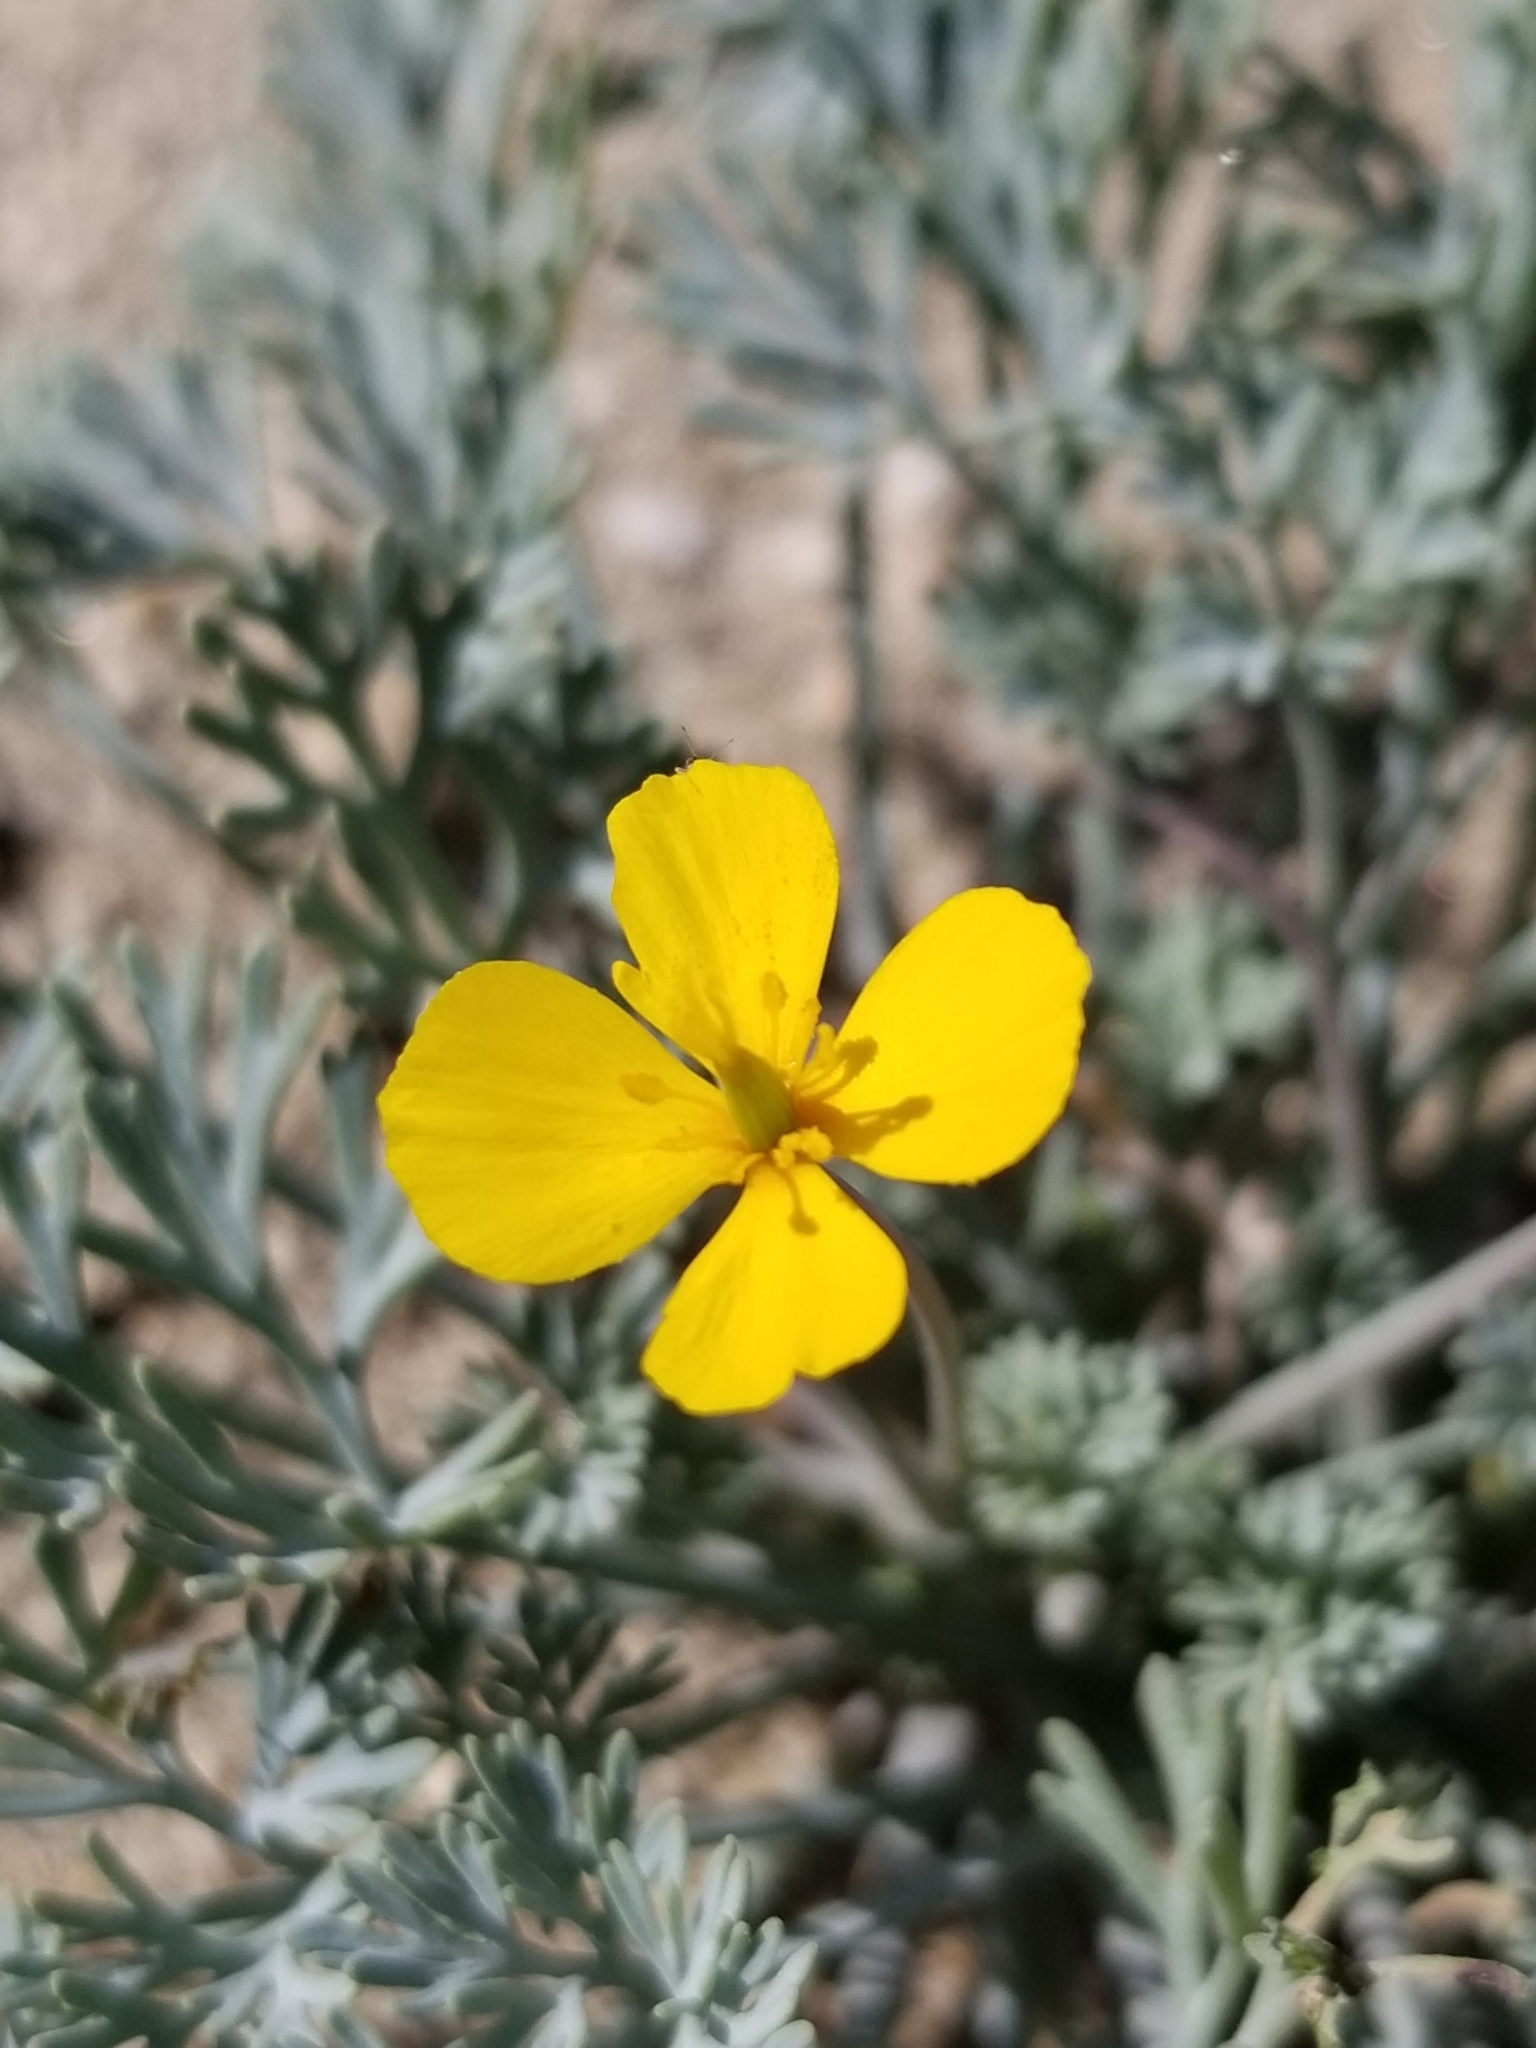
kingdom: Plantae
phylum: Tracheophyta
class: Magnoliopsida
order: Ranunculales
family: Papaveraceae
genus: Eschscholzia
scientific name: Eschscholzia minutiflora
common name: Small-flower california-poppy
